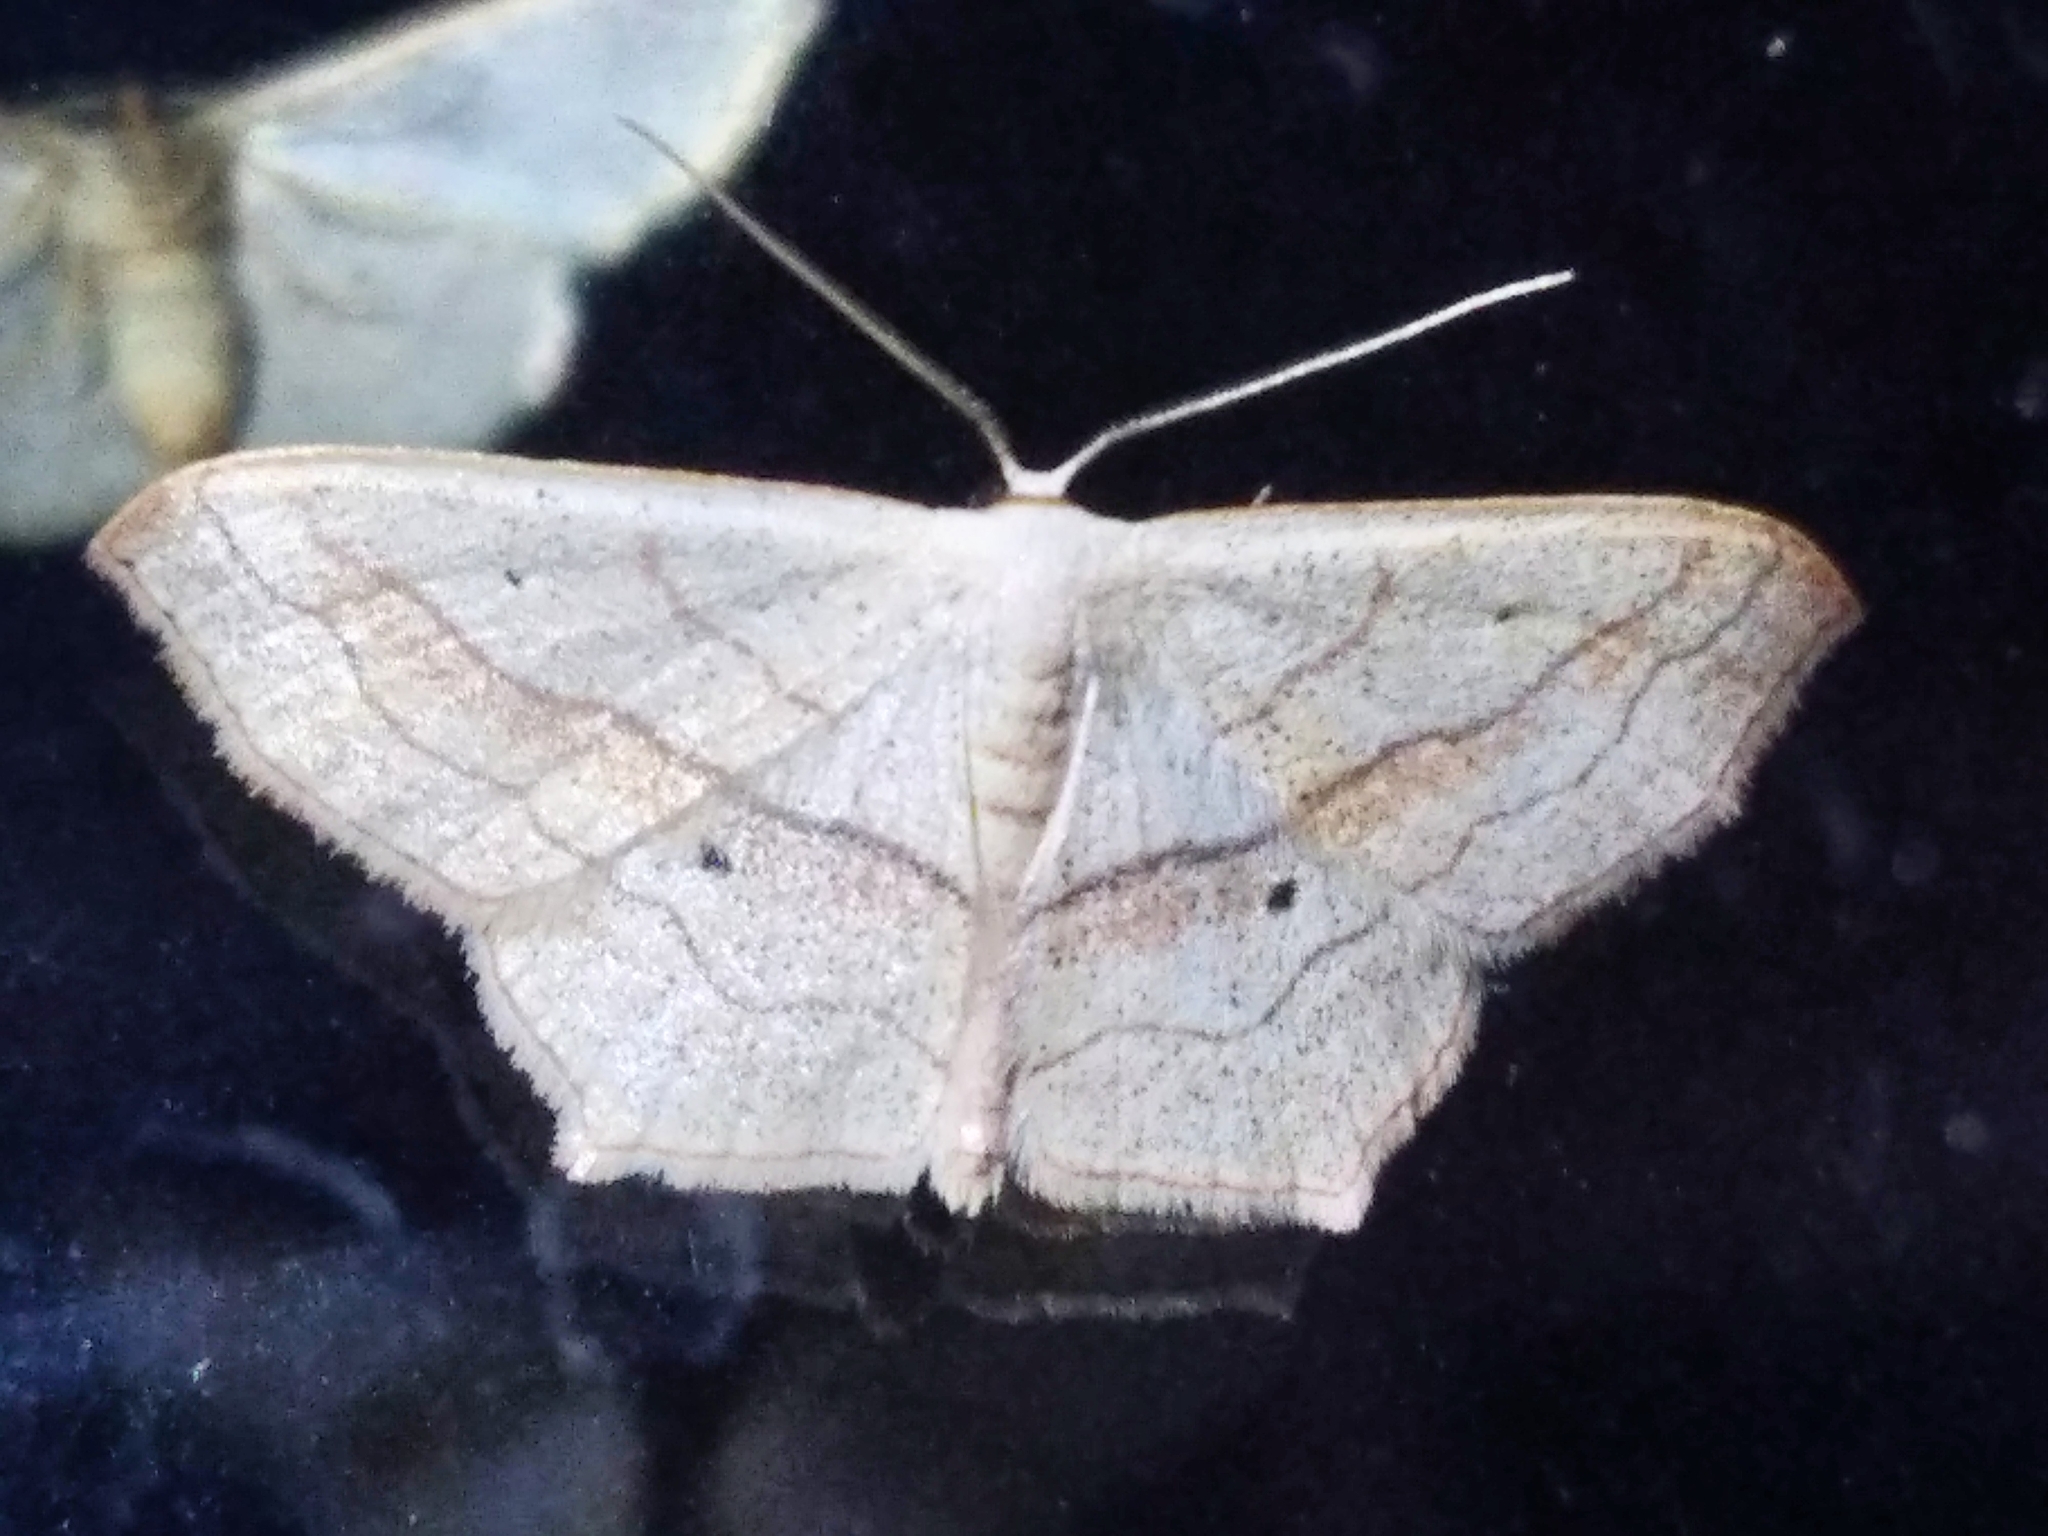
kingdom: Animalia
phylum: Arthropoda
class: Insecta
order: Lepidoptera
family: Geometridae
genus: Scopula
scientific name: Scopula imitaria
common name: Small blood-vein
